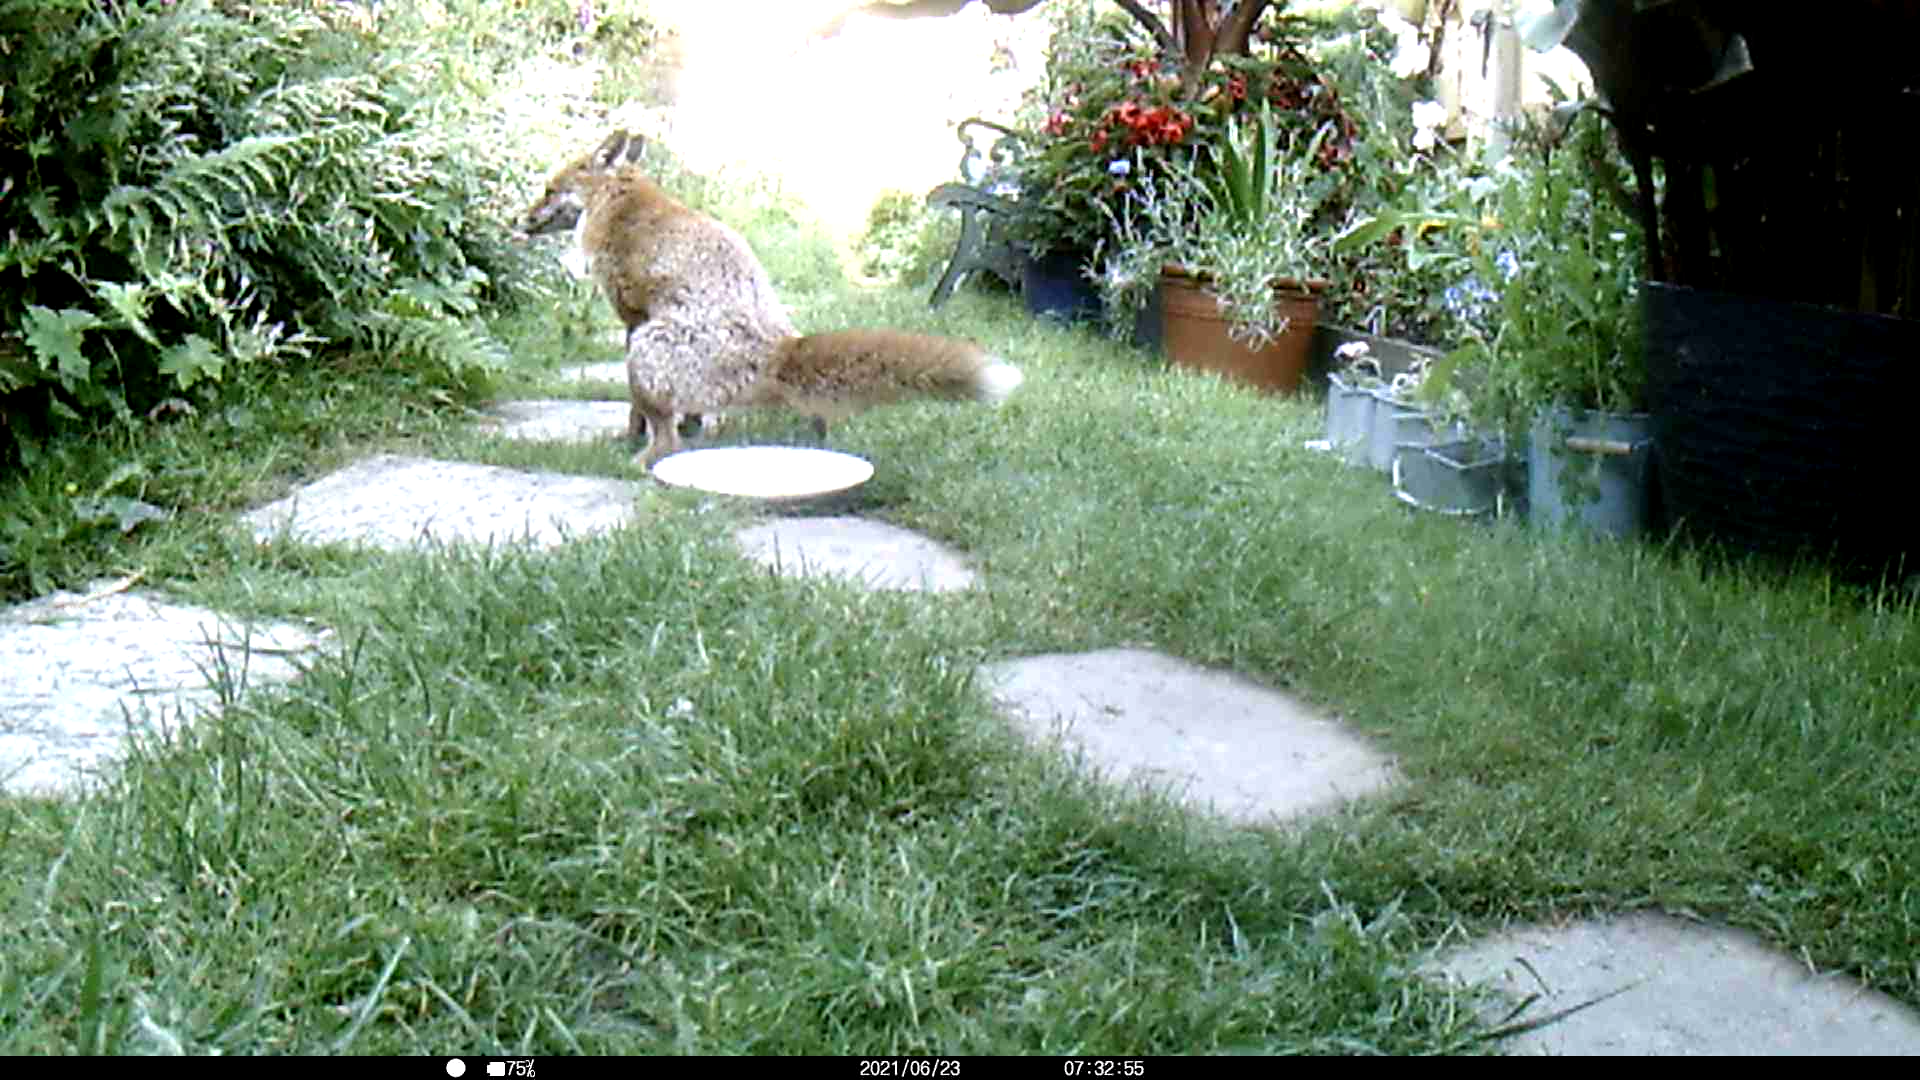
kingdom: Animalia
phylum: Chordata
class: Mammalia
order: Carnivora
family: Canidae
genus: Vulpes
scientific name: Vulpes vulpes
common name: Red fox
